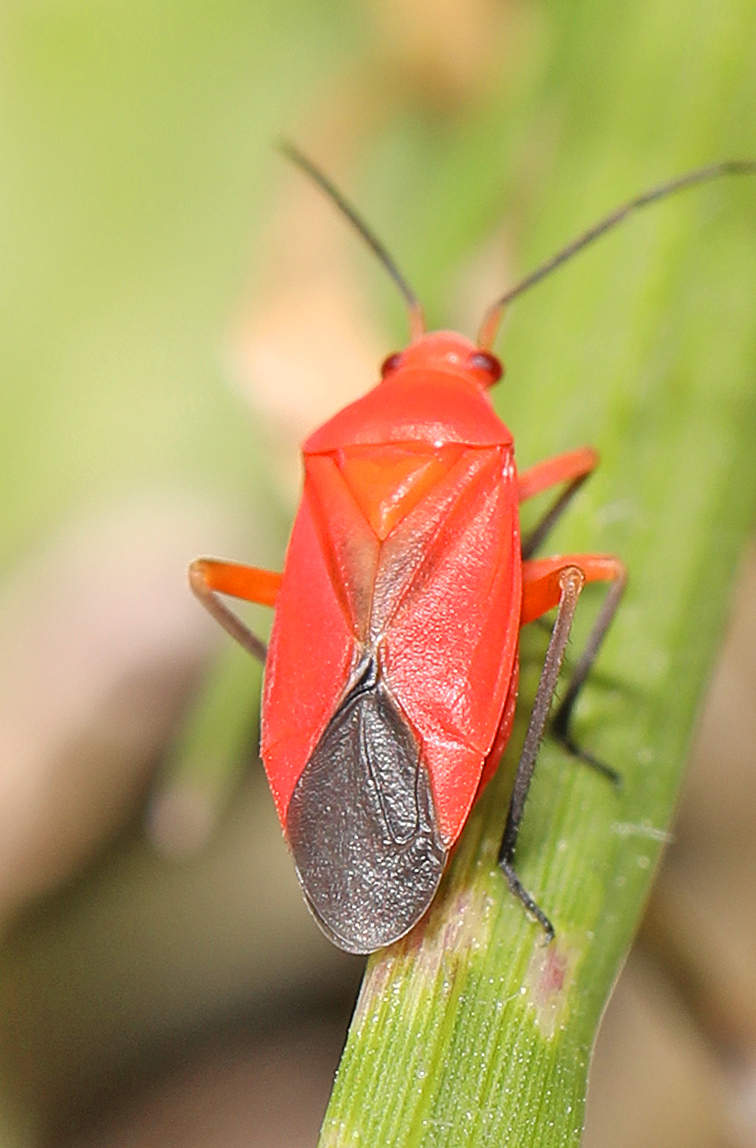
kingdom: Animalia
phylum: Arthropoda
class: Insecta
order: Hemiptera
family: Miridae
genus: Oncerometopus
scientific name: Oncerometopus ruber
